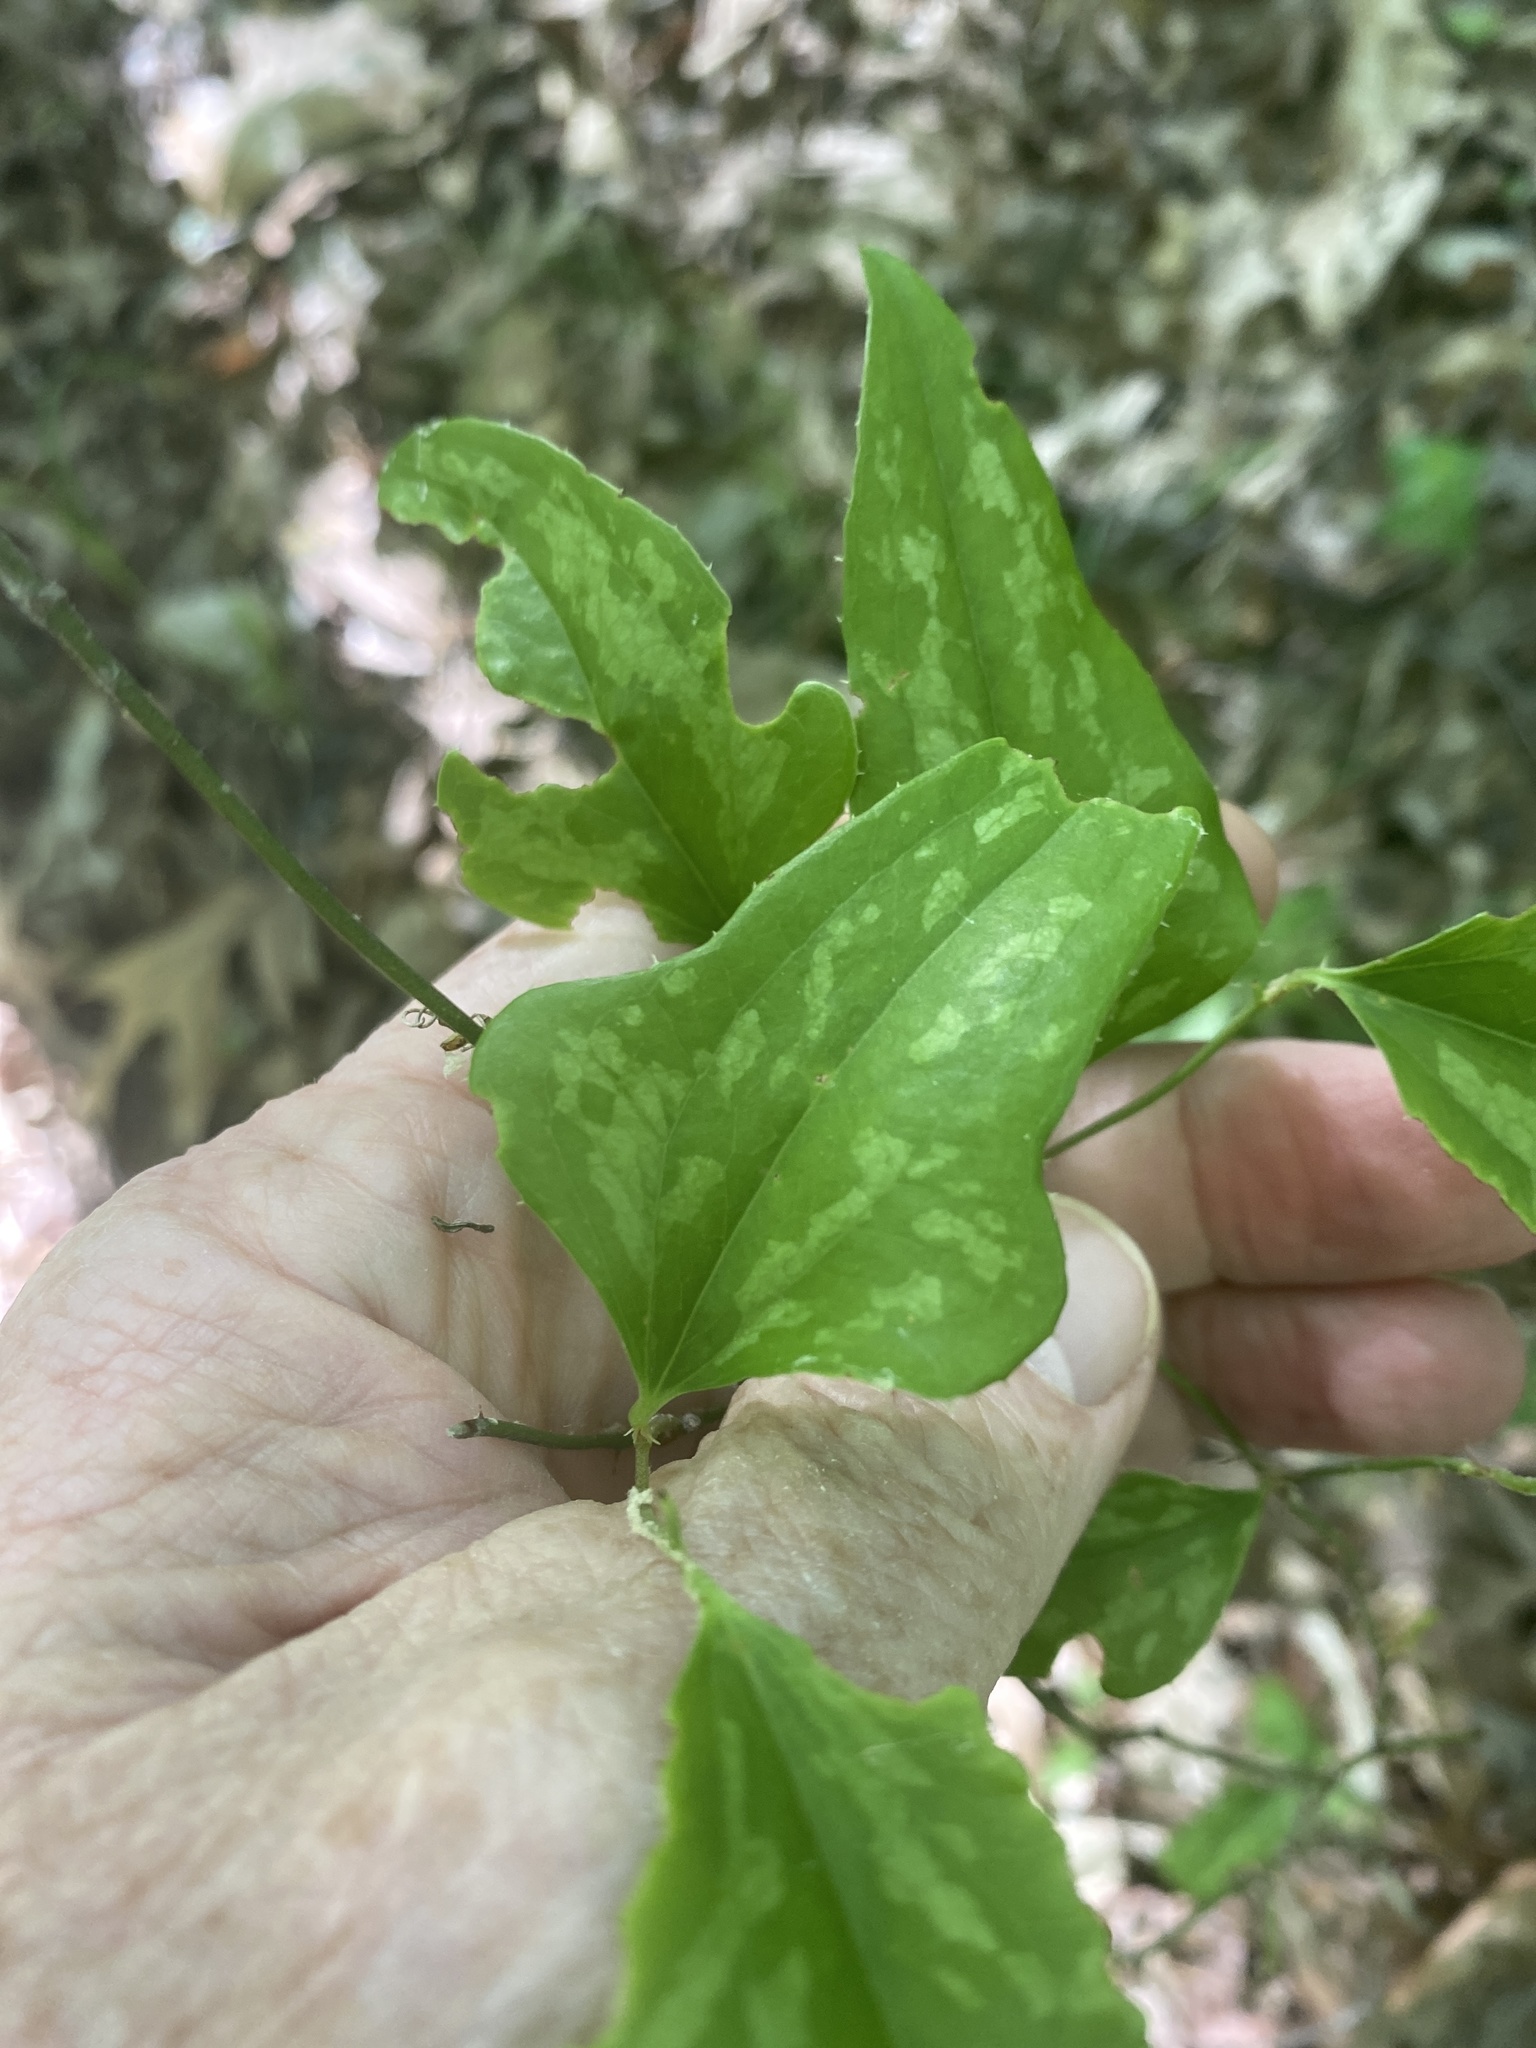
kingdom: Plantae
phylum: Tracheophyta
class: Liliopsida
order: Liliales
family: Smilacaceae
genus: Smilax
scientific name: Smilax bona-nox
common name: Catbrier
